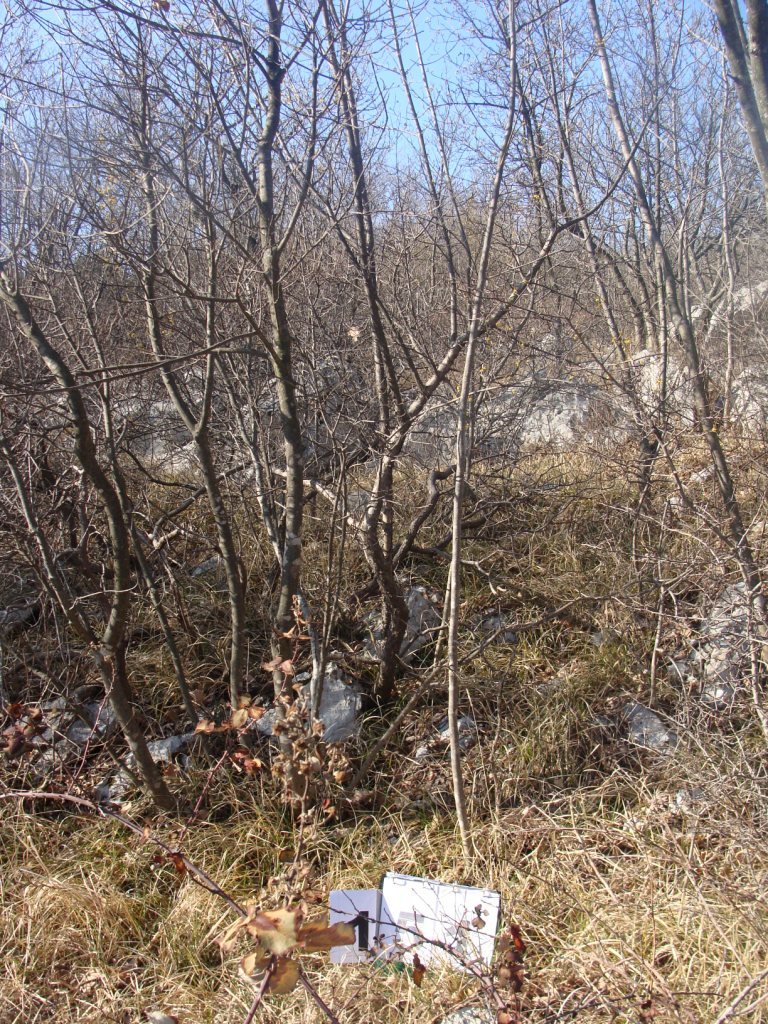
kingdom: Plantae
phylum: Tracheophyta
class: Magnoliopsida
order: Cornales
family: Cornaceae
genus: Cornus
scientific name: Cornus mas
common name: Cornelian-cherry
